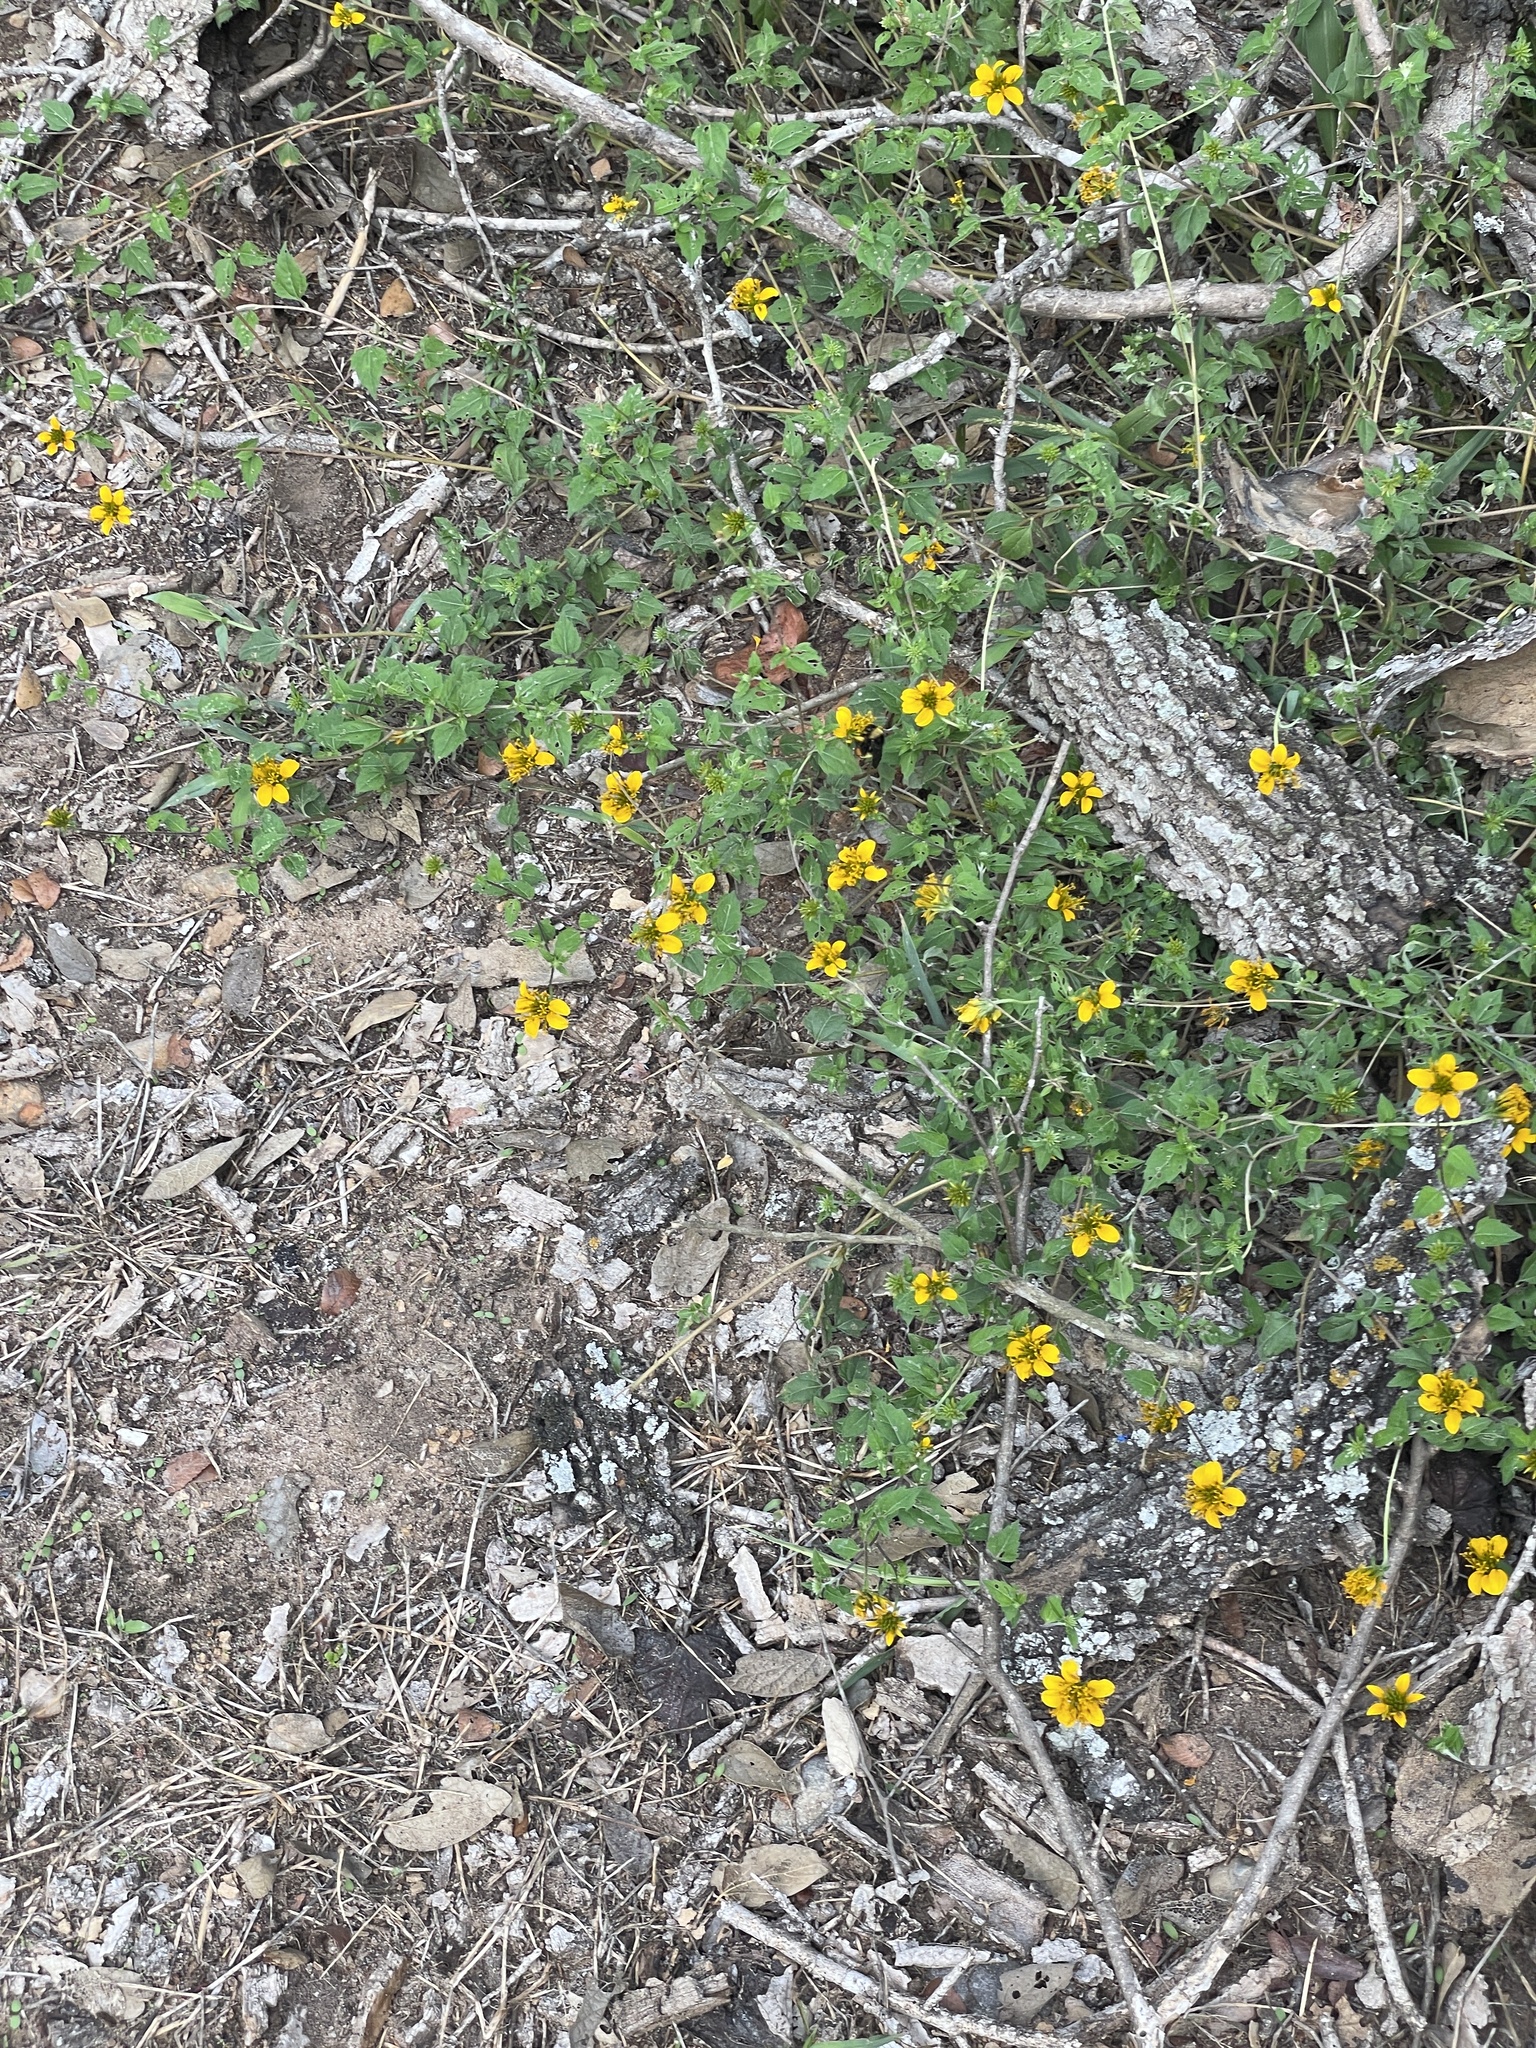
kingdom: Plantae
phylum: Tracheophyta
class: Magnoliopsida
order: Asterales
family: Asteraceae
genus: Sclerocarpus
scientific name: Sclerocarpus uniserialis
